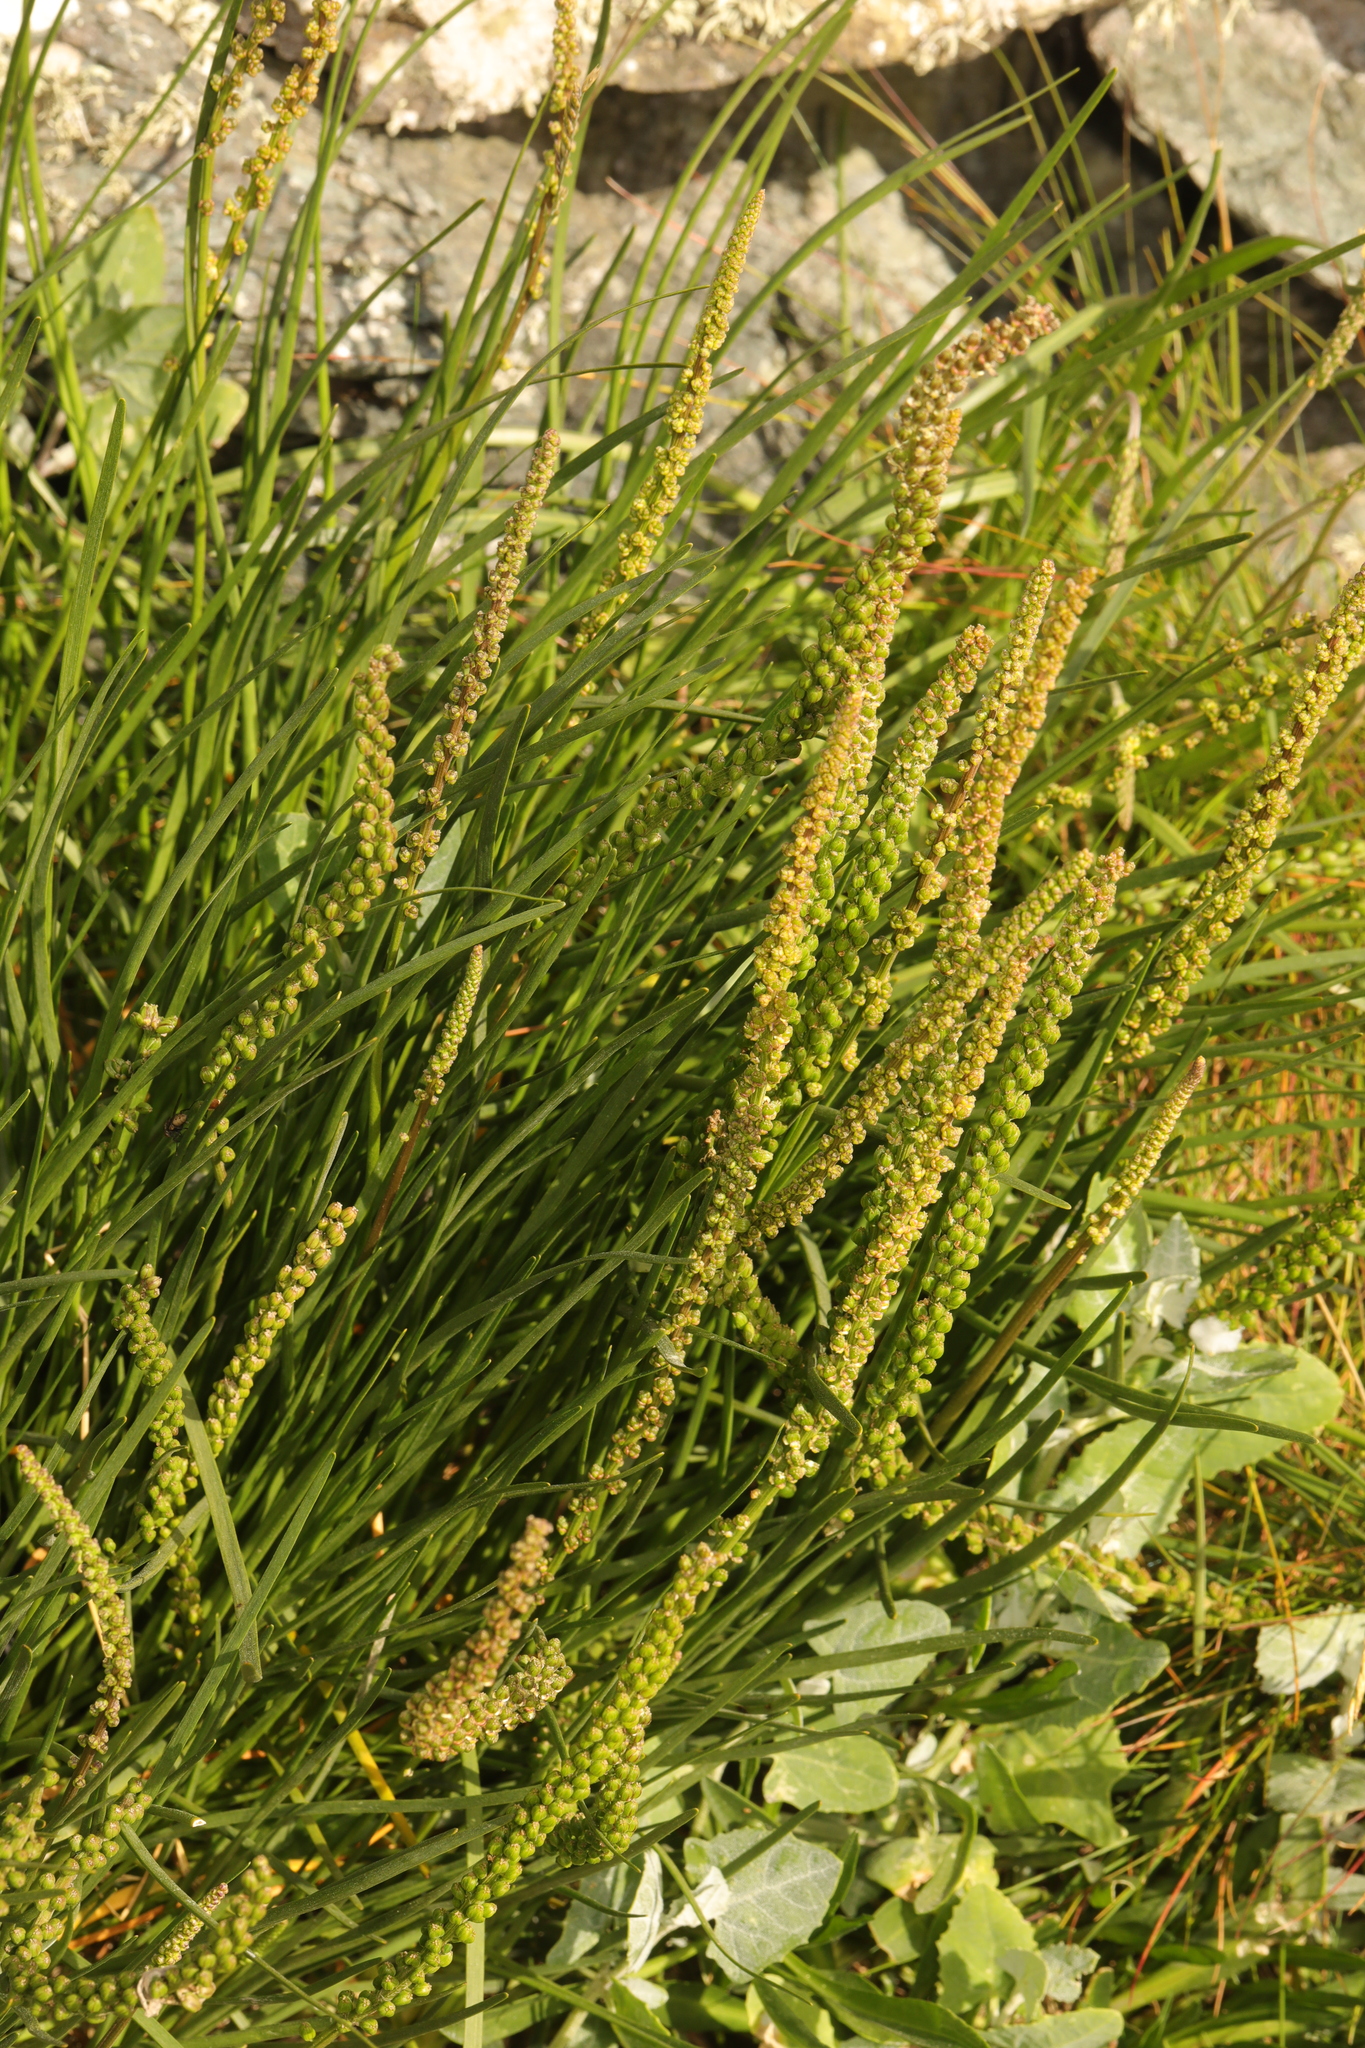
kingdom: Plantae
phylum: Tracheophyta
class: Liliopsida
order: Alismatales
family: Juncaginaceae
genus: Triglochin
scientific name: Triglochin maritima
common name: Sea arrowgrass
